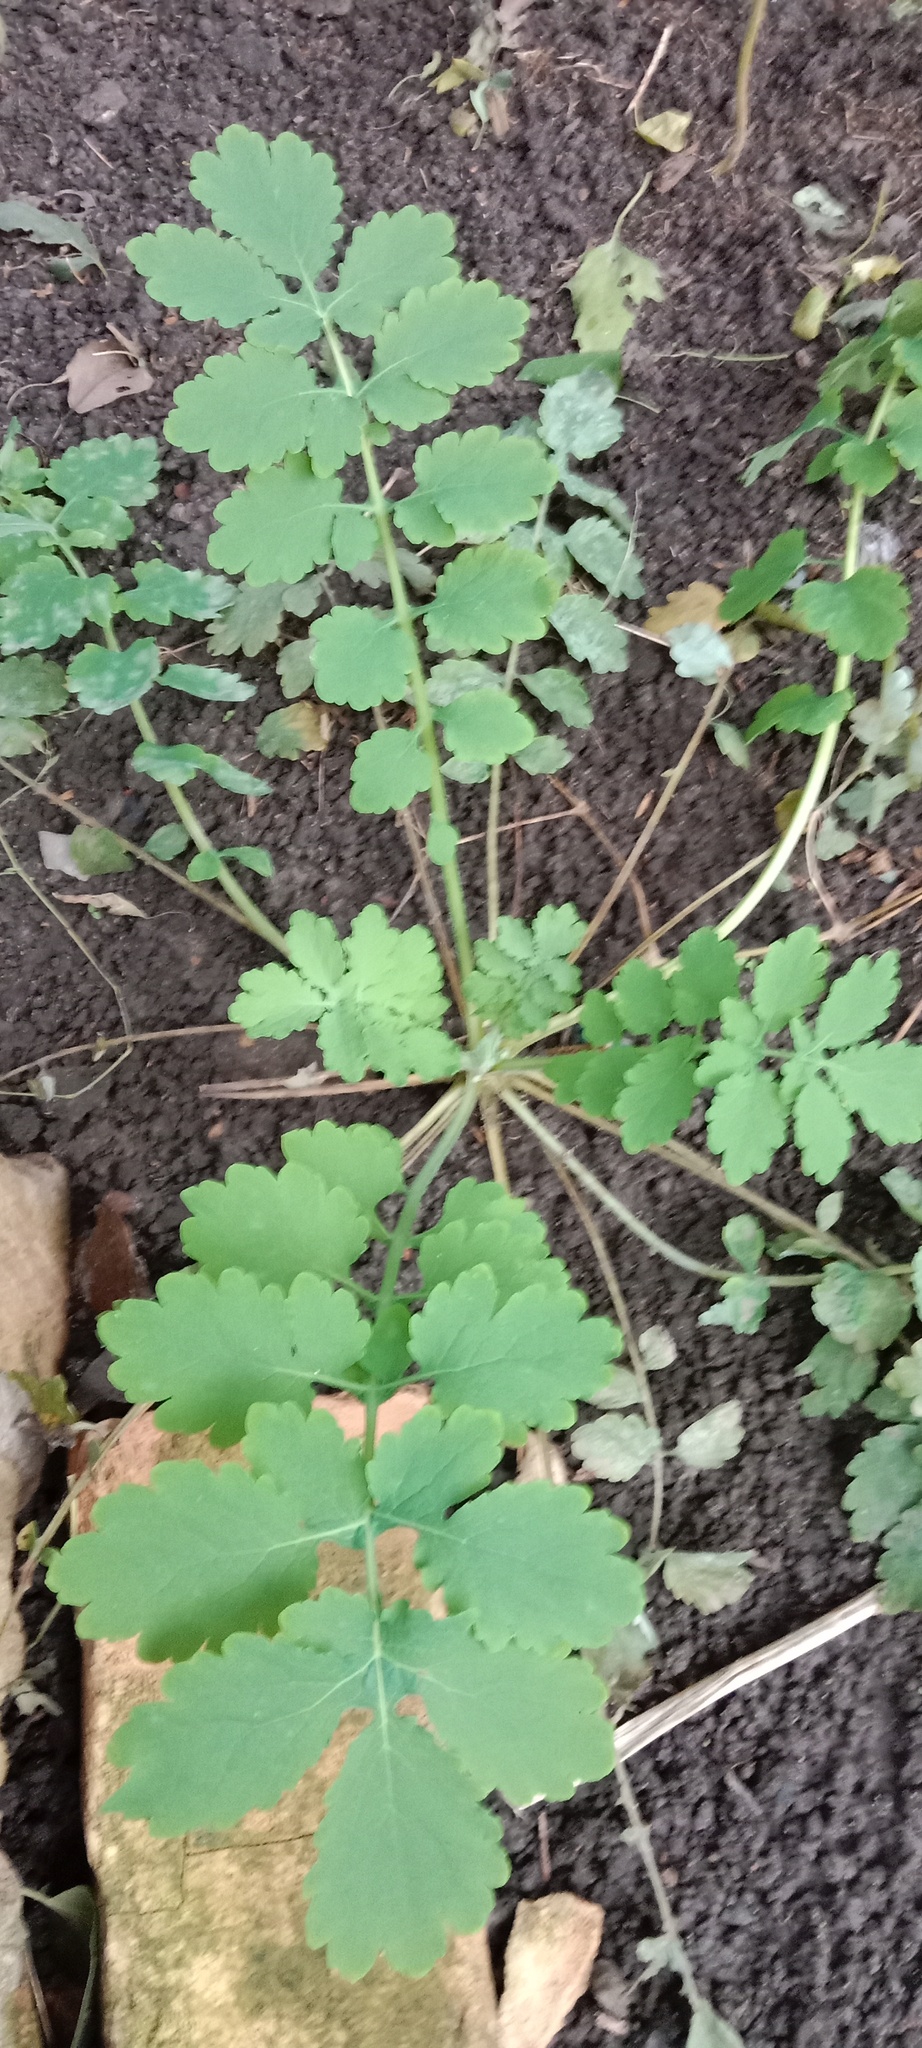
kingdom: Plantae
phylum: Tracheophyta
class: Magnoliopsida
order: Ranunculales
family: Papaveraceae
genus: Chelidonium
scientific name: Chelidonium majus
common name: Greater celandine
